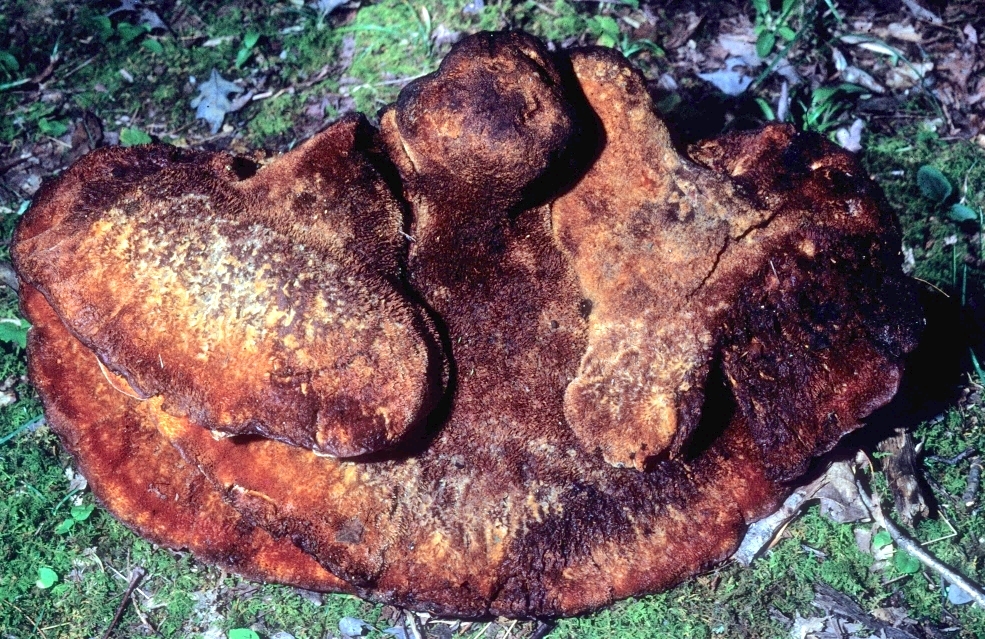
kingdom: Fungi
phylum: Basidiomycota
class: Agaricomycetes
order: Hymenochaetales
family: Hymenochaetaceae
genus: Inonotus
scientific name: Inonotus hispidus
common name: Shaggy bracket
